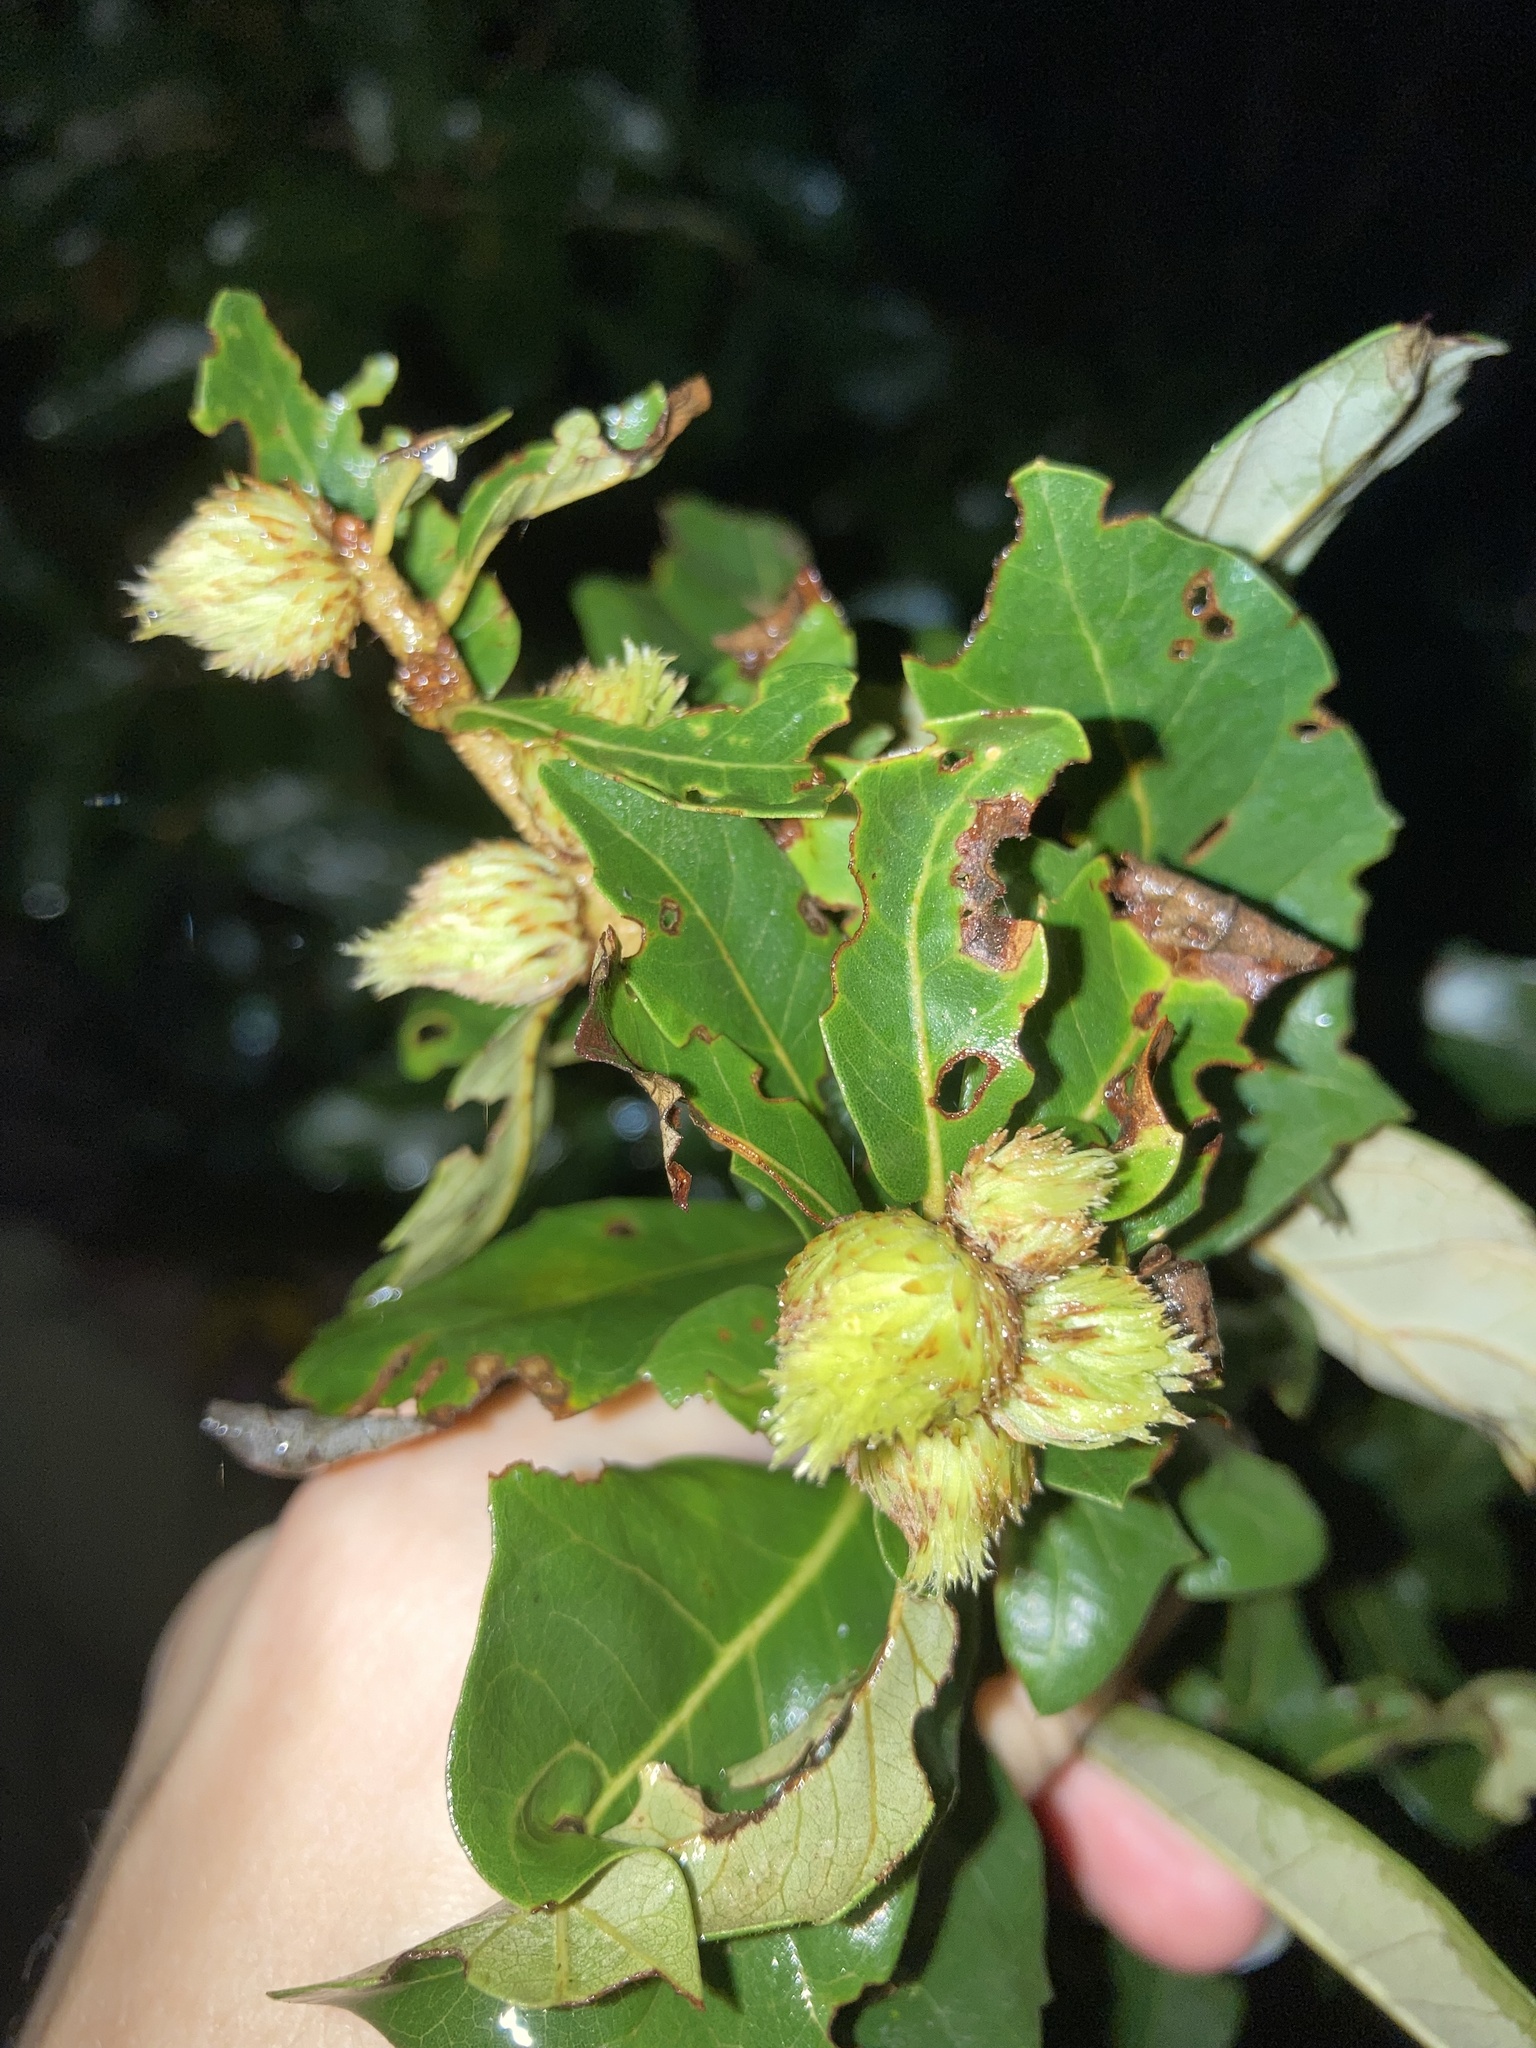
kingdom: Animalia
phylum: Arthropoda
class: Insecta
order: Hymenoptera
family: Cynipidae
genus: Andricus
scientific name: Andricus quercusfoliatus
